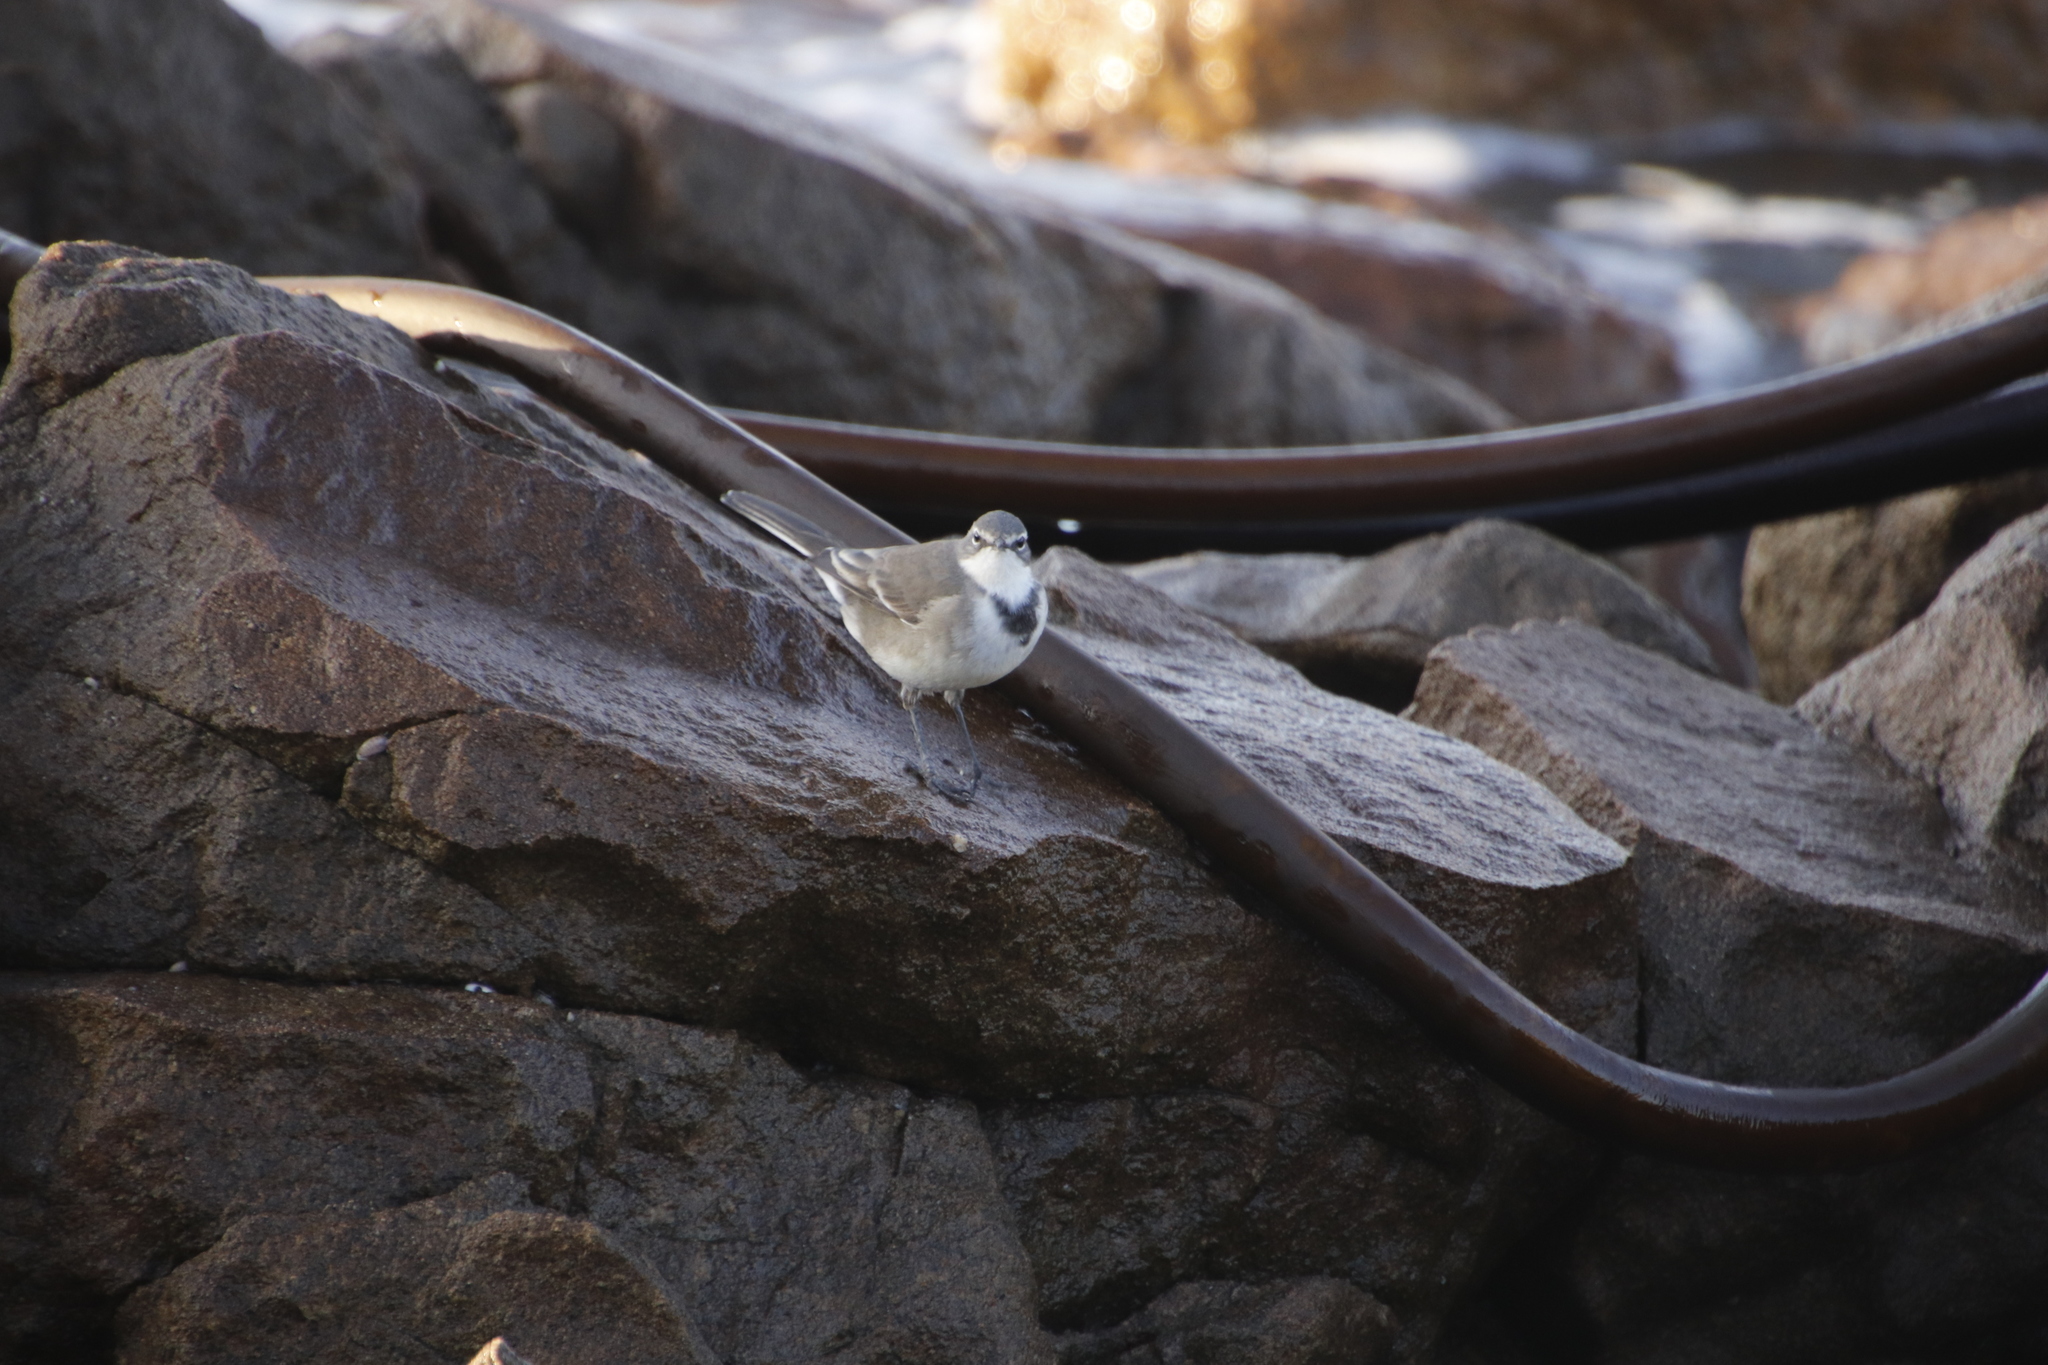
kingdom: Animalia
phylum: Chordata
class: Aves
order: Passeriformes
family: Motacillidae
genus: Motacilla
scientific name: Motacilla capensis
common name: Cape wagtail
